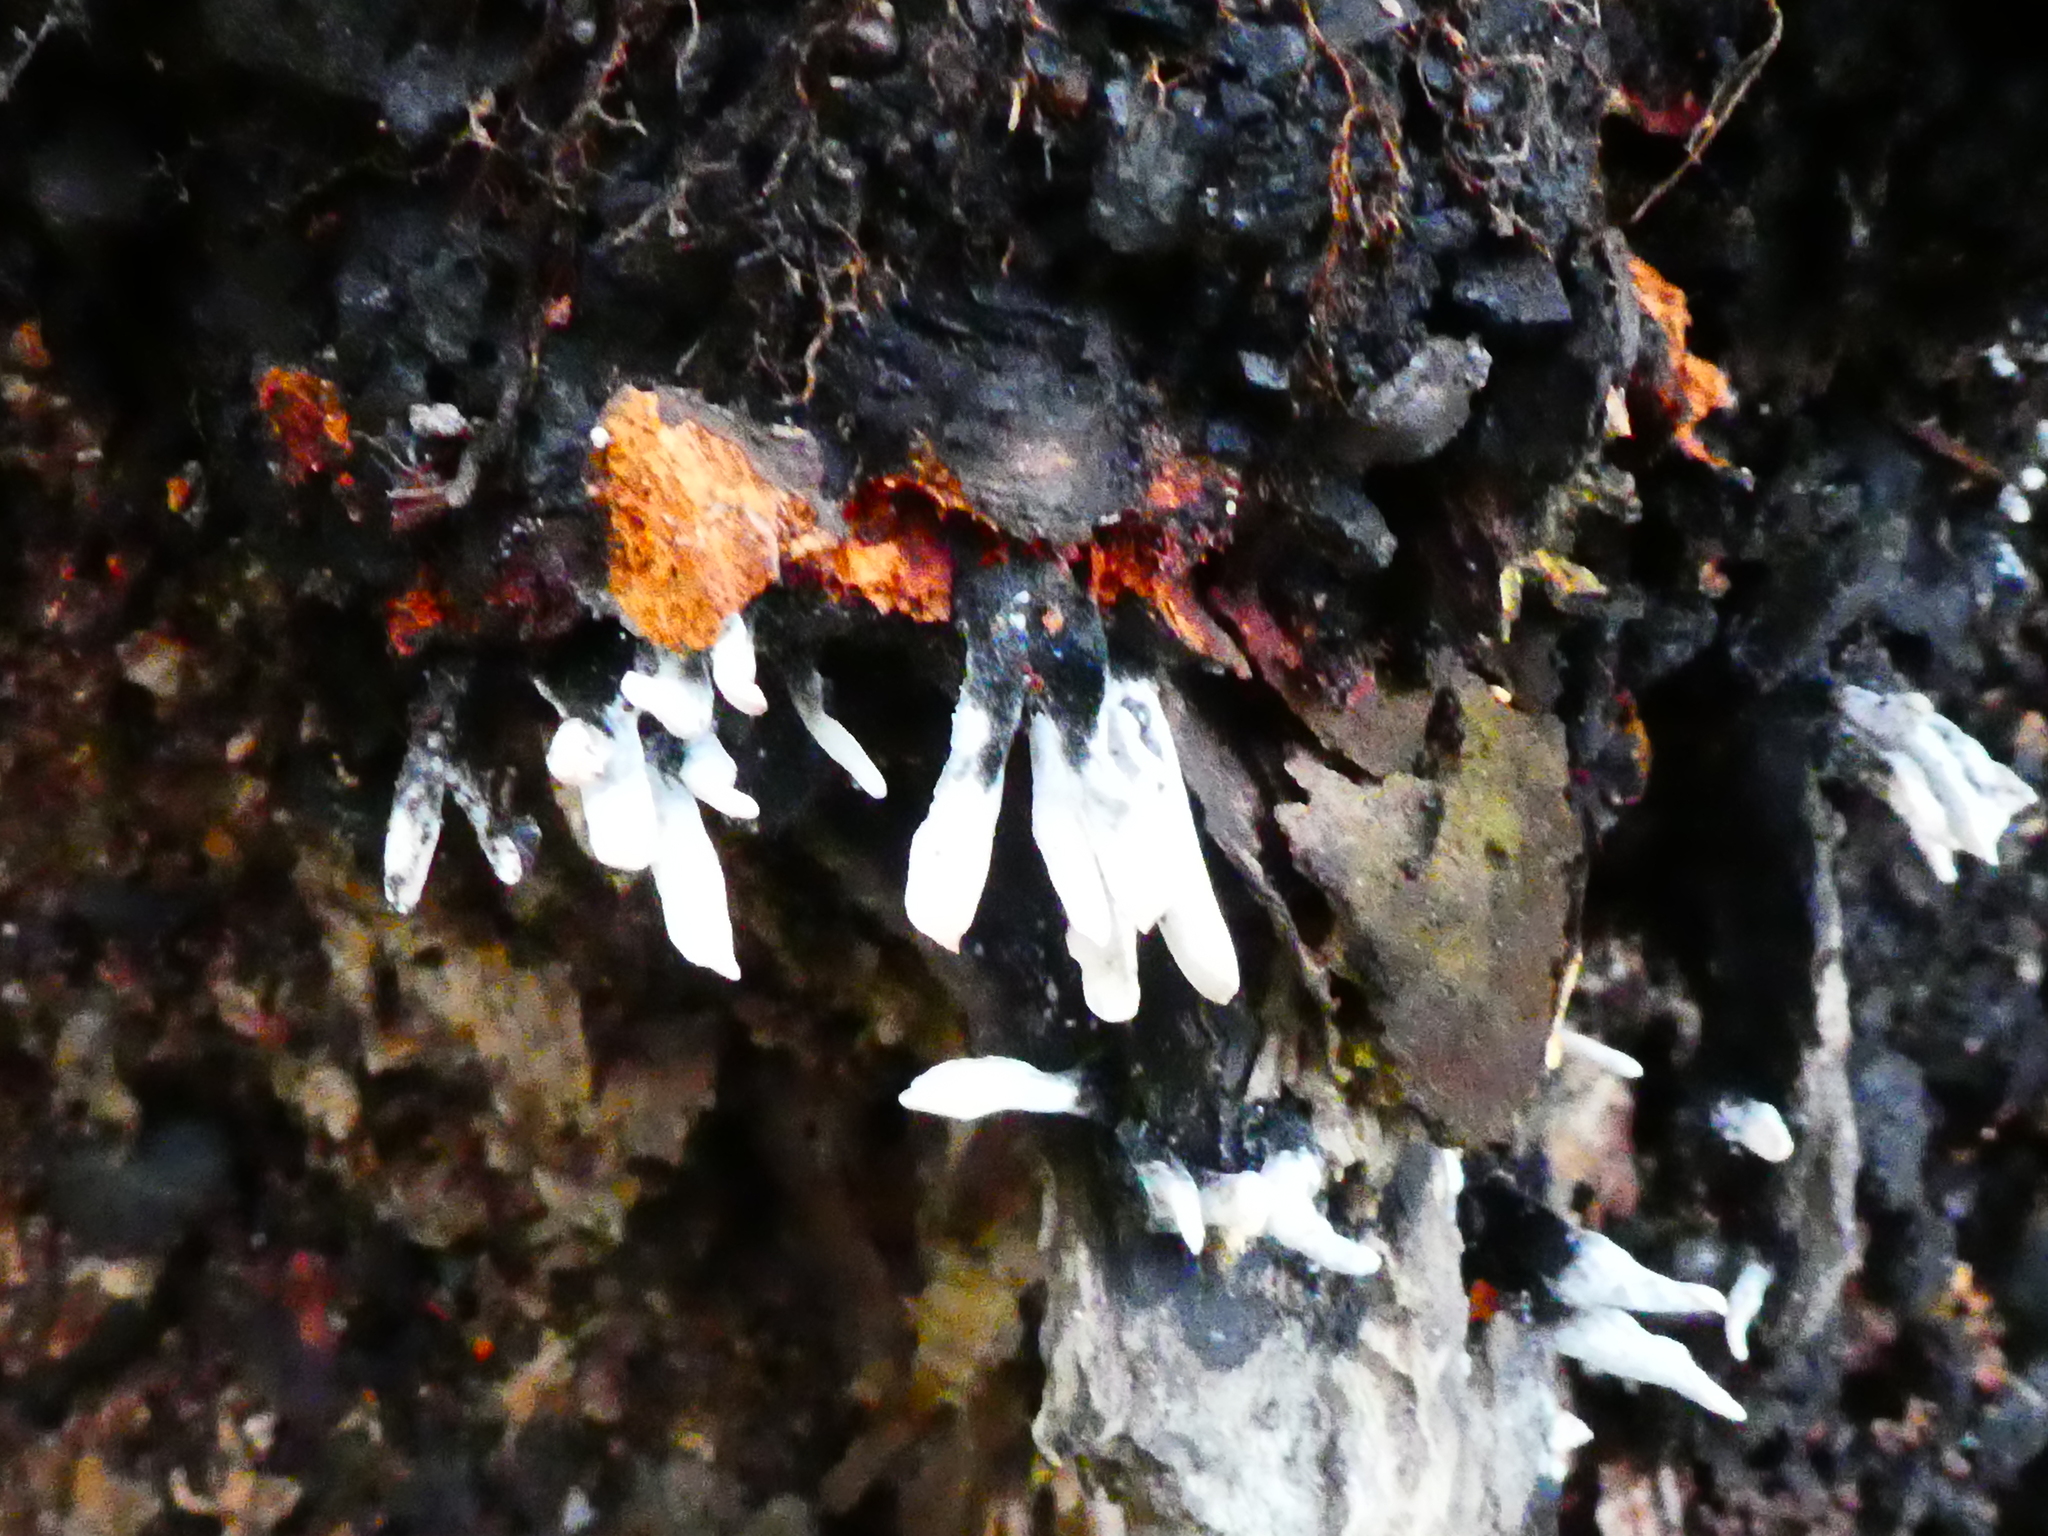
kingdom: Fungi
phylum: Ascomycota
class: Sordariomycetes
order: Xylariales
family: Xylariaceae
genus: Xylaria
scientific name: Xylaria hypoxylon
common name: Candle-snuff fungus
